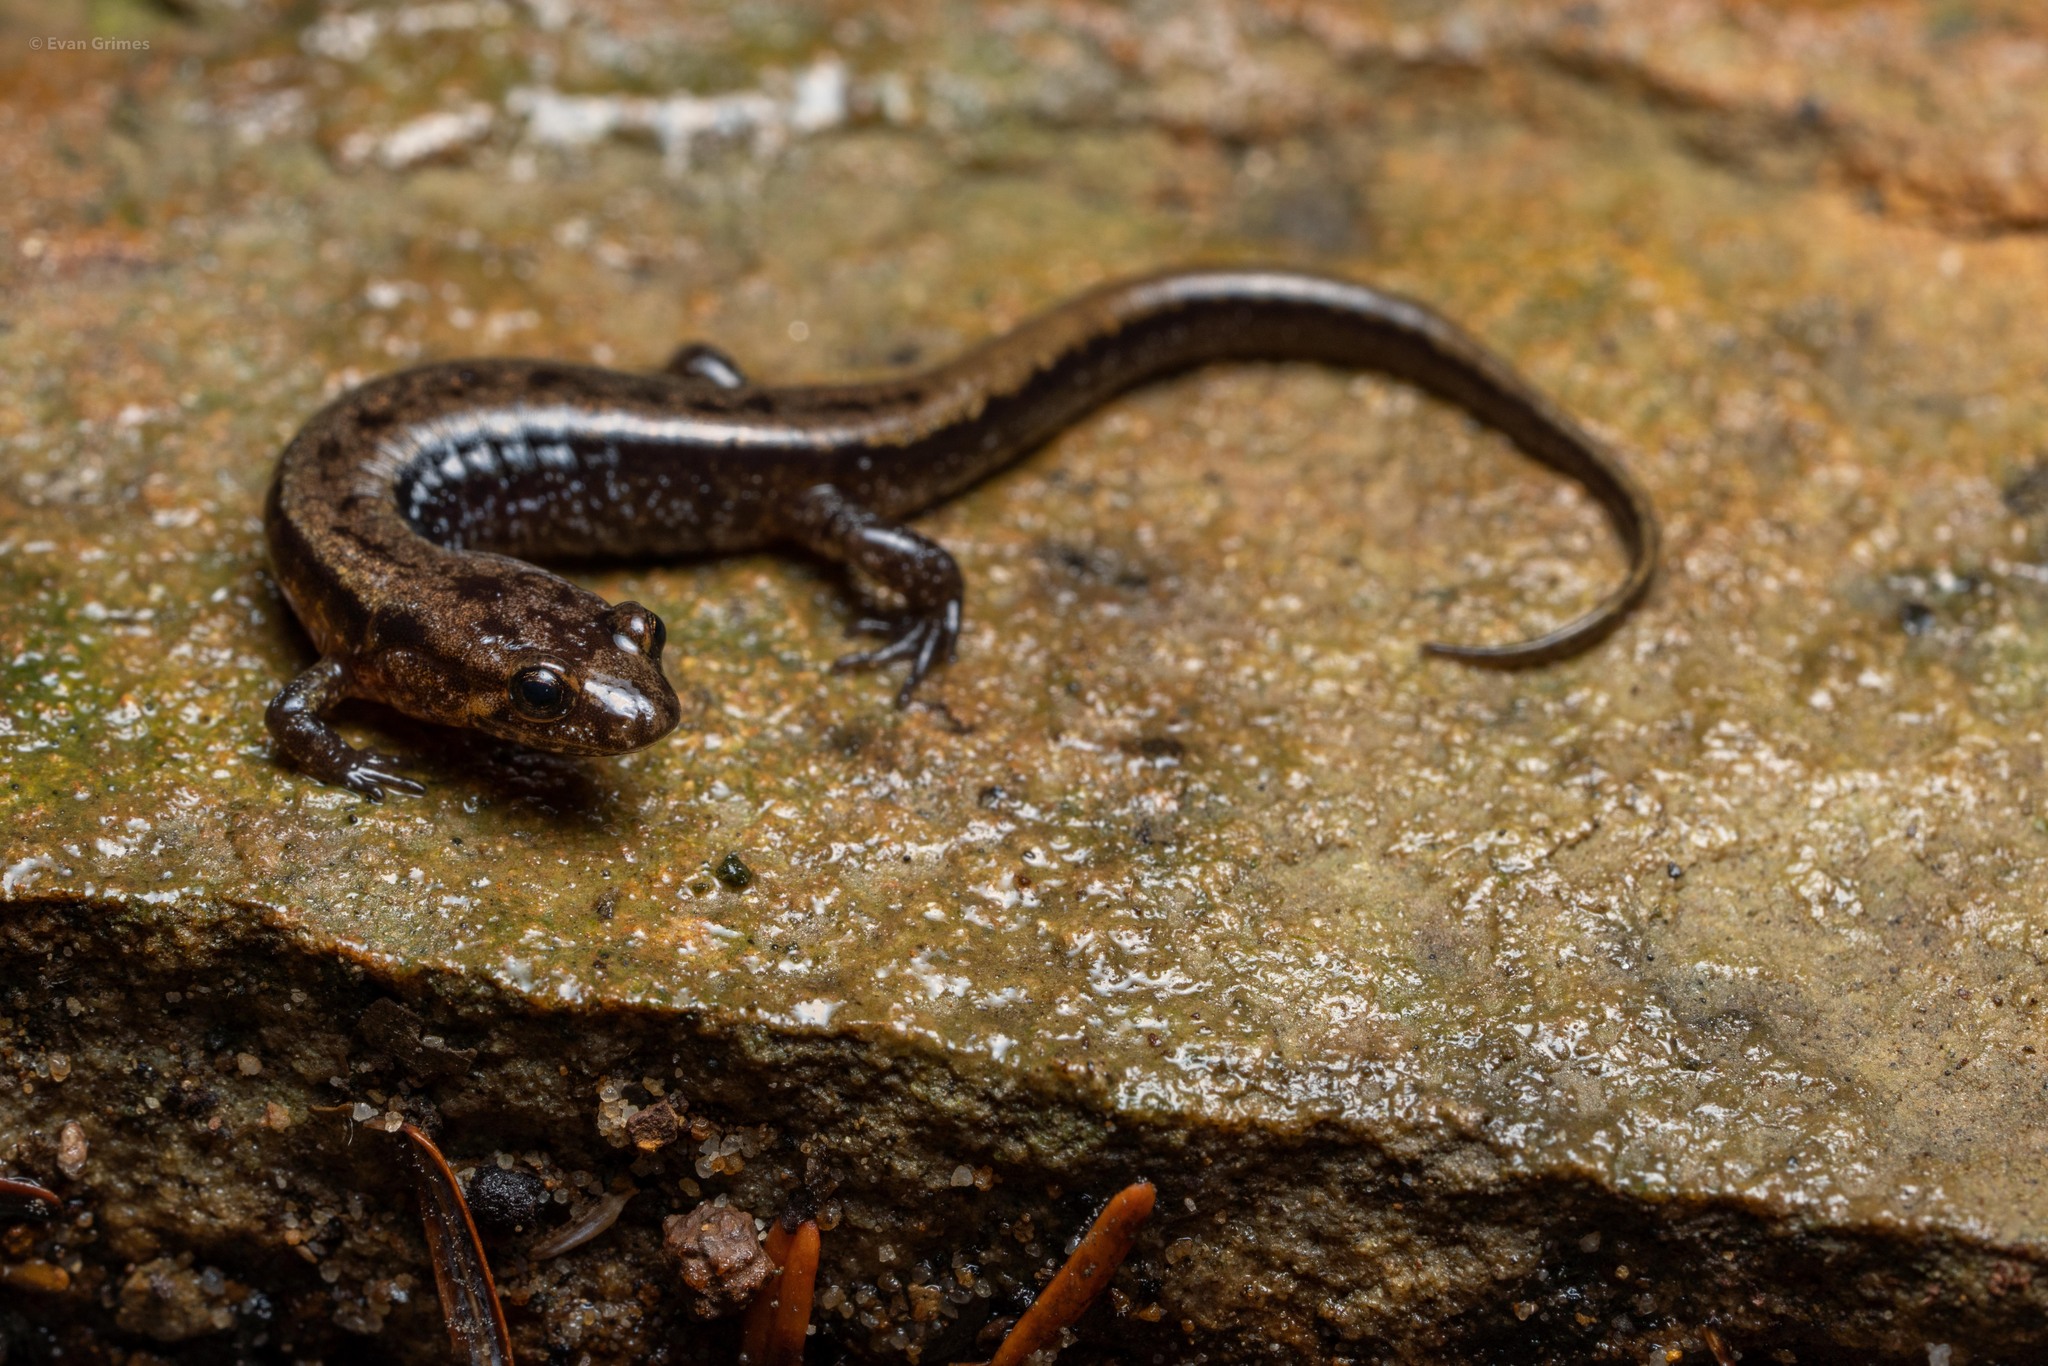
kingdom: Animalia
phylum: Chordata
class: Amphibia
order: Caudata
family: Plethodontidae
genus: Desmognathus
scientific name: Desmognathus ochrophaeus
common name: Allegheny mountain dusky salamander
